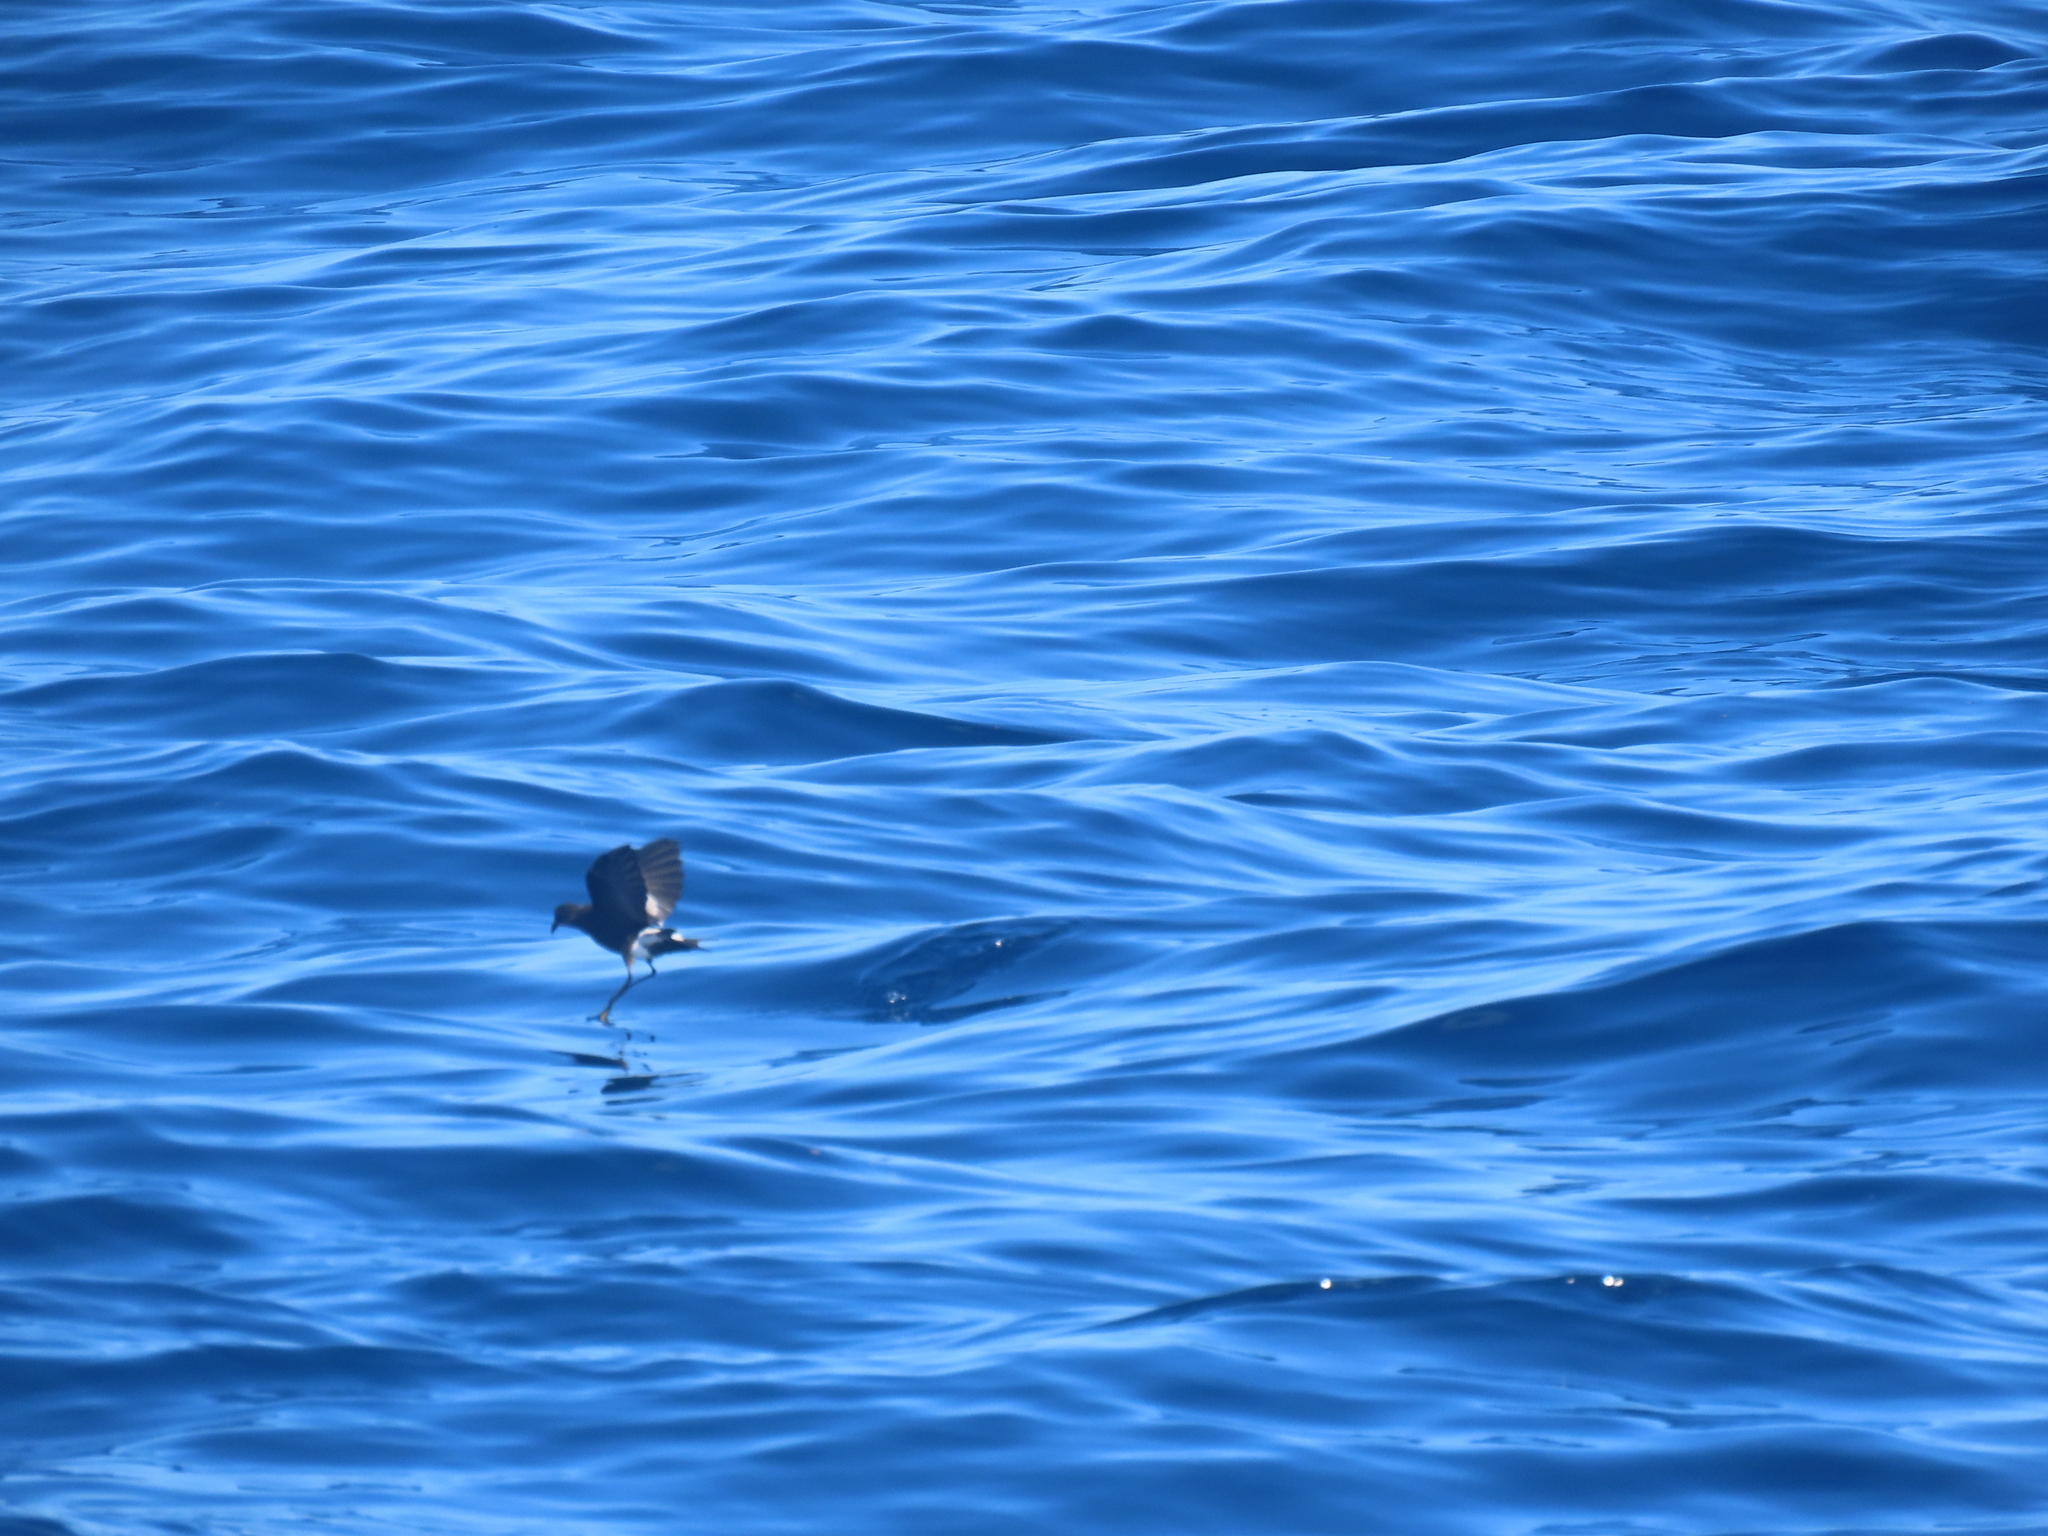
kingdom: Animalia
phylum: Chordata
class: Aves
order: Procellariiformes
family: Hydrobatidae
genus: Oceanites
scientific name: Oceanites oceanicus
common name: Wilson's storm petrel
